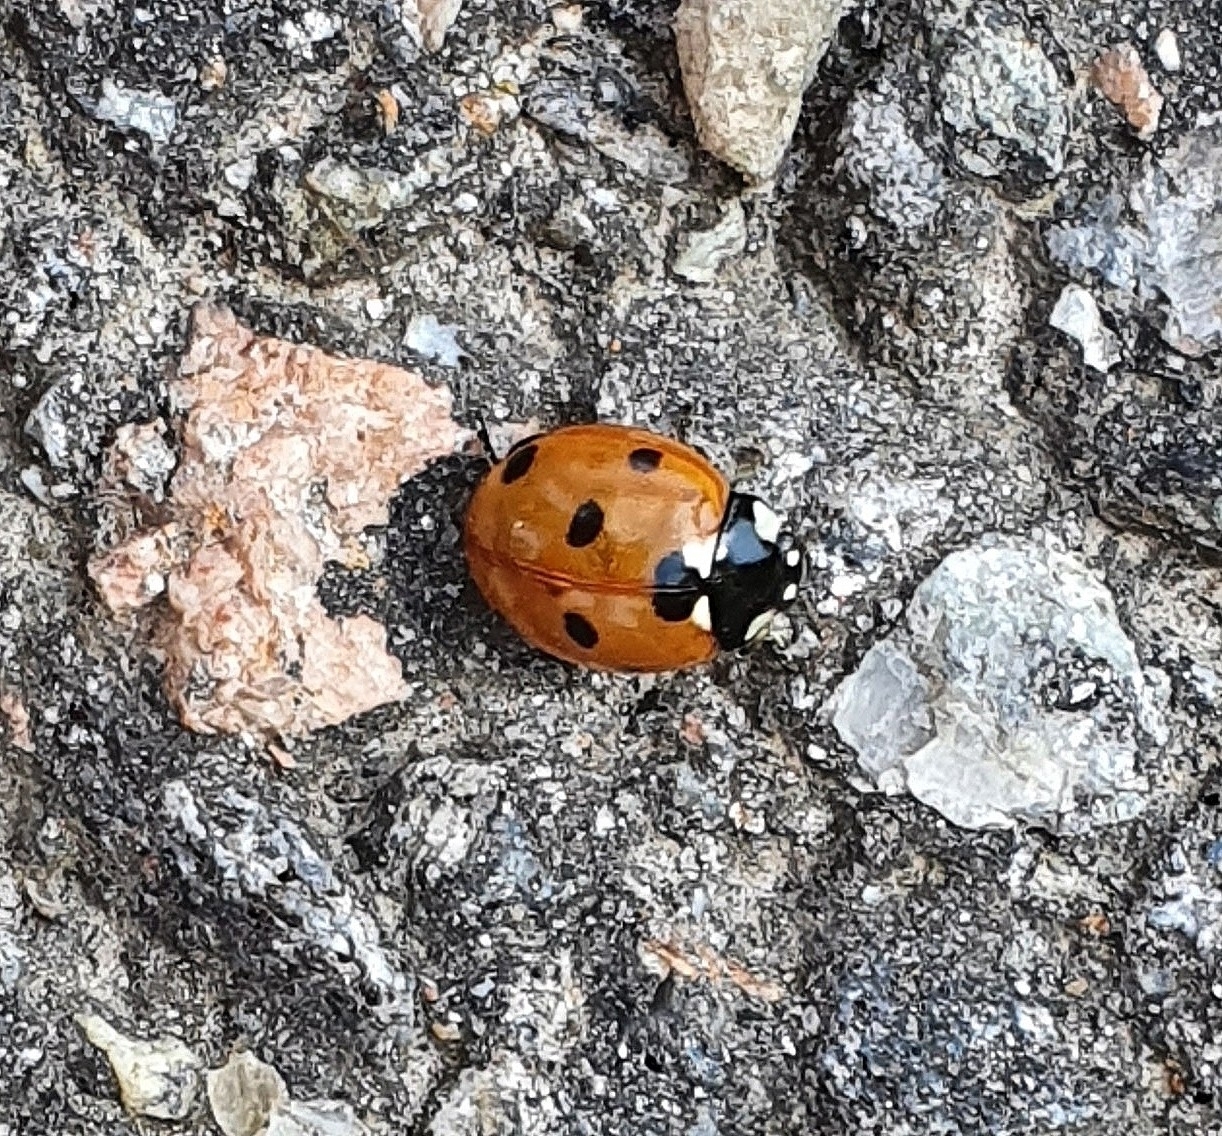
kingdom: Animalia
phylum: Arthropoda
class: Insecta
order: Coleoptera
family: Coccinellidae
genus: Coccinella
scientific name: Coccinella septempunctata
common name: Sevenspotted lady beetle
